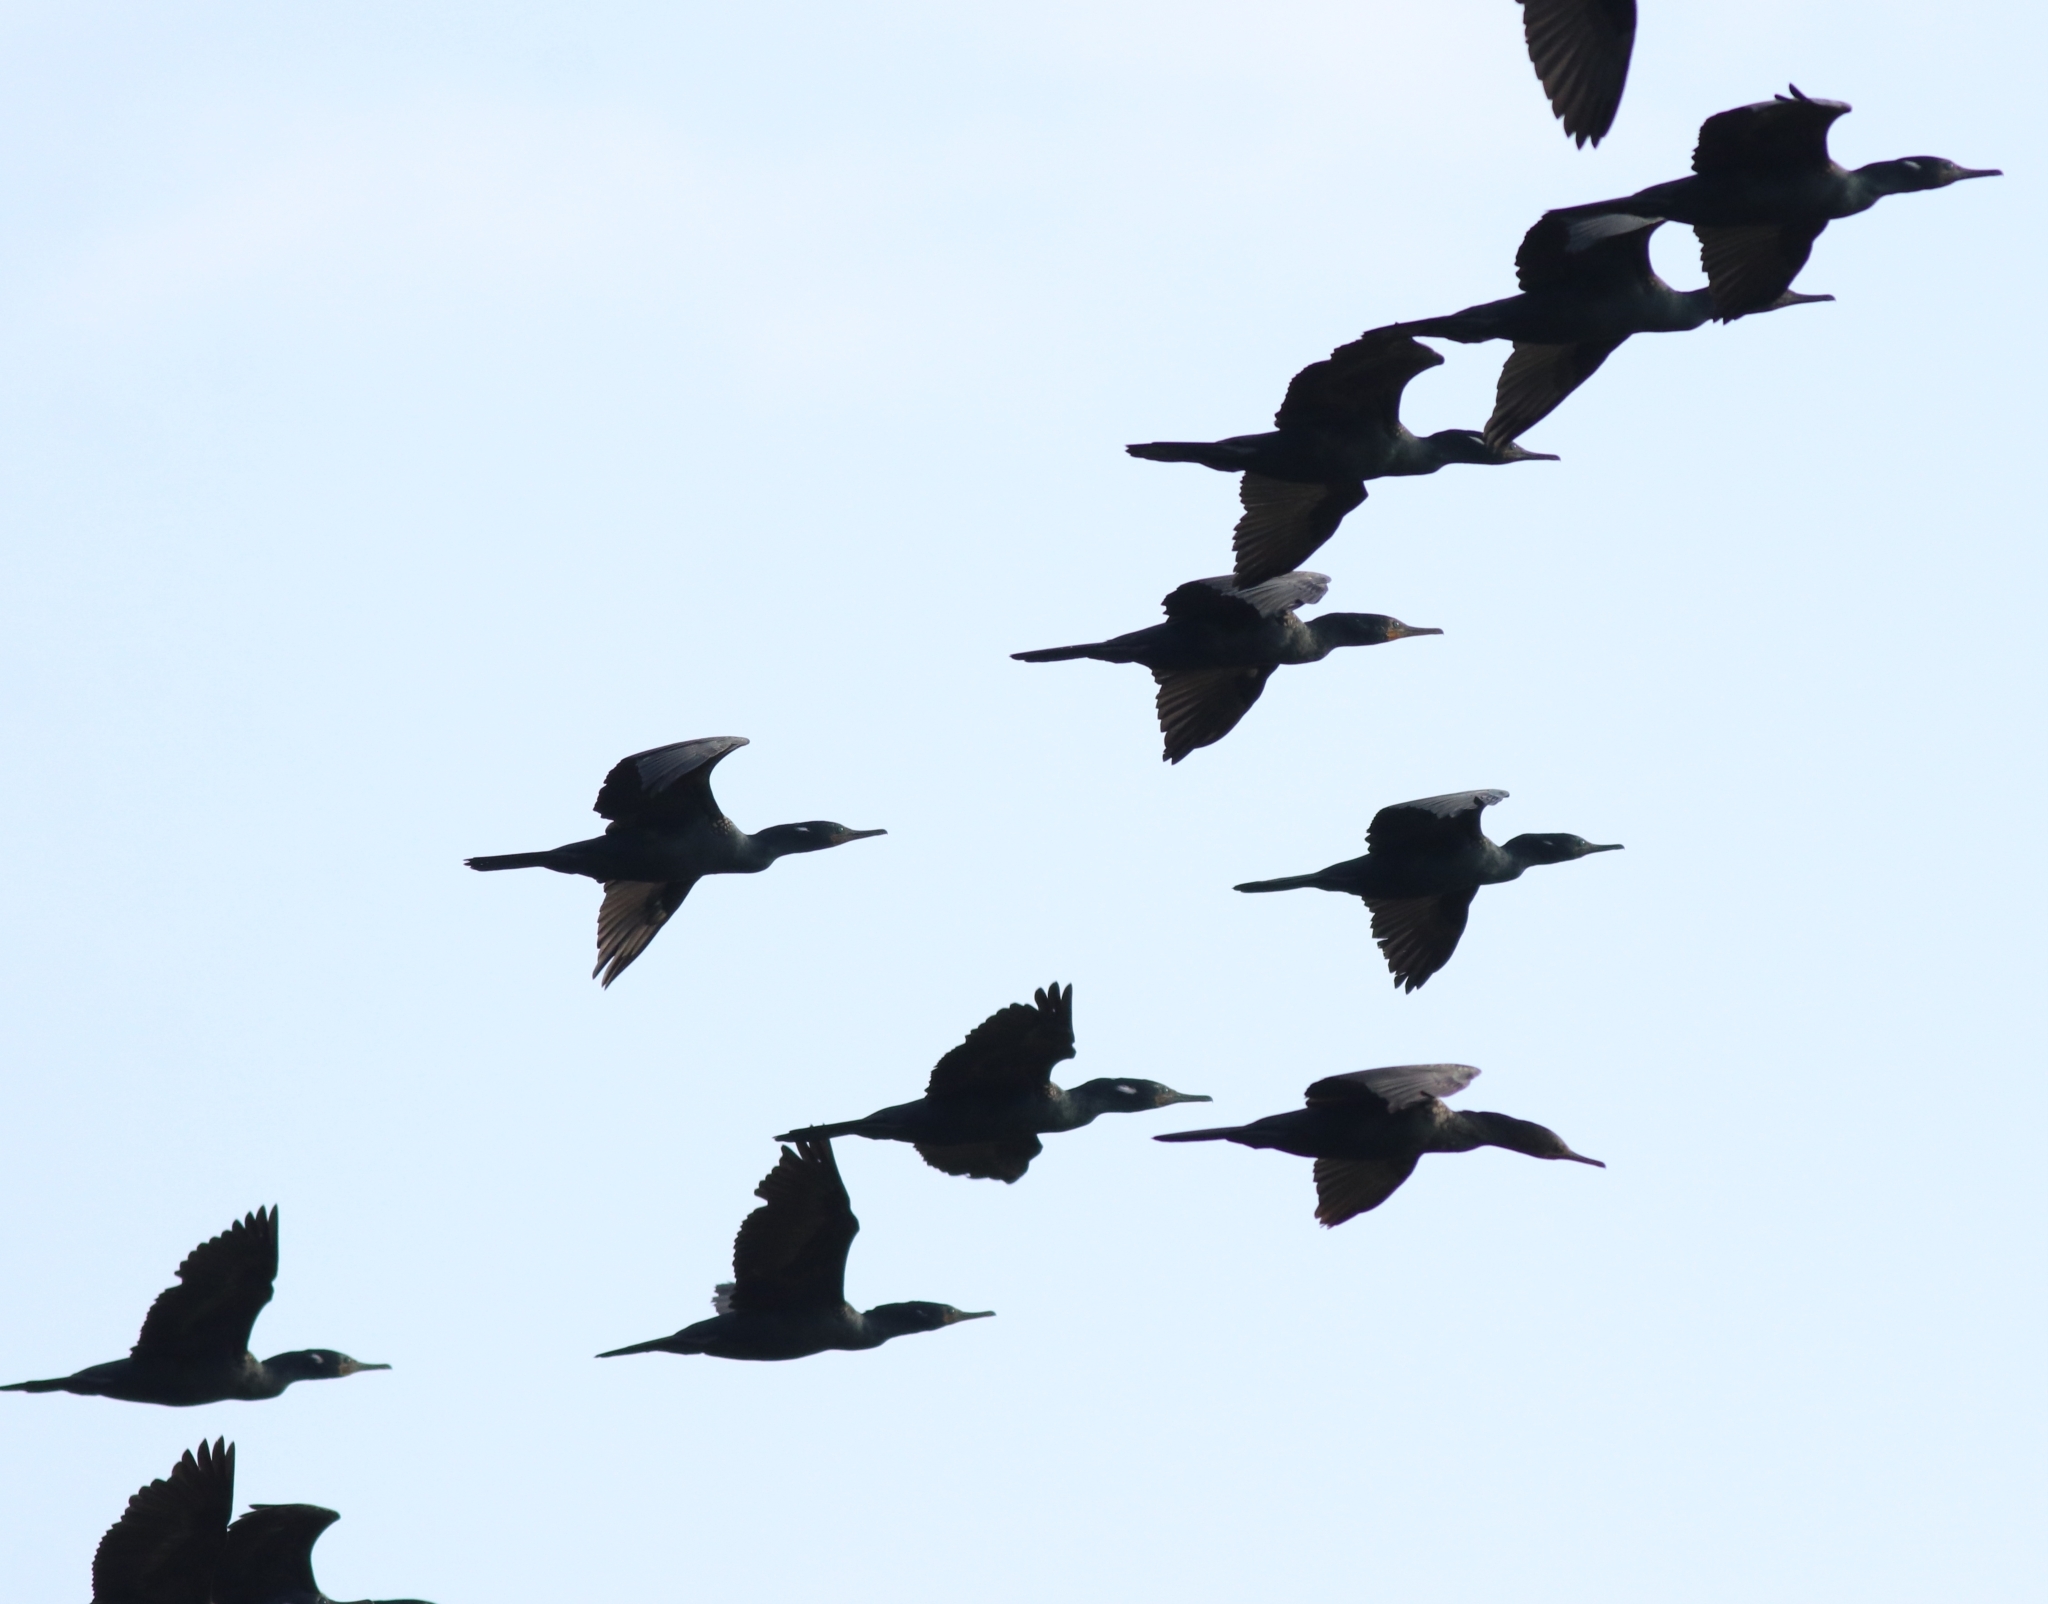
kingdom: Animalia
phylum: Chordata
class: Aves
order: Suliformes
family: Phalacrocoracidae
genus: Phalacrocorax
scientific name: Phalacrocorax fuscicollis
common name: Indian cormorant
